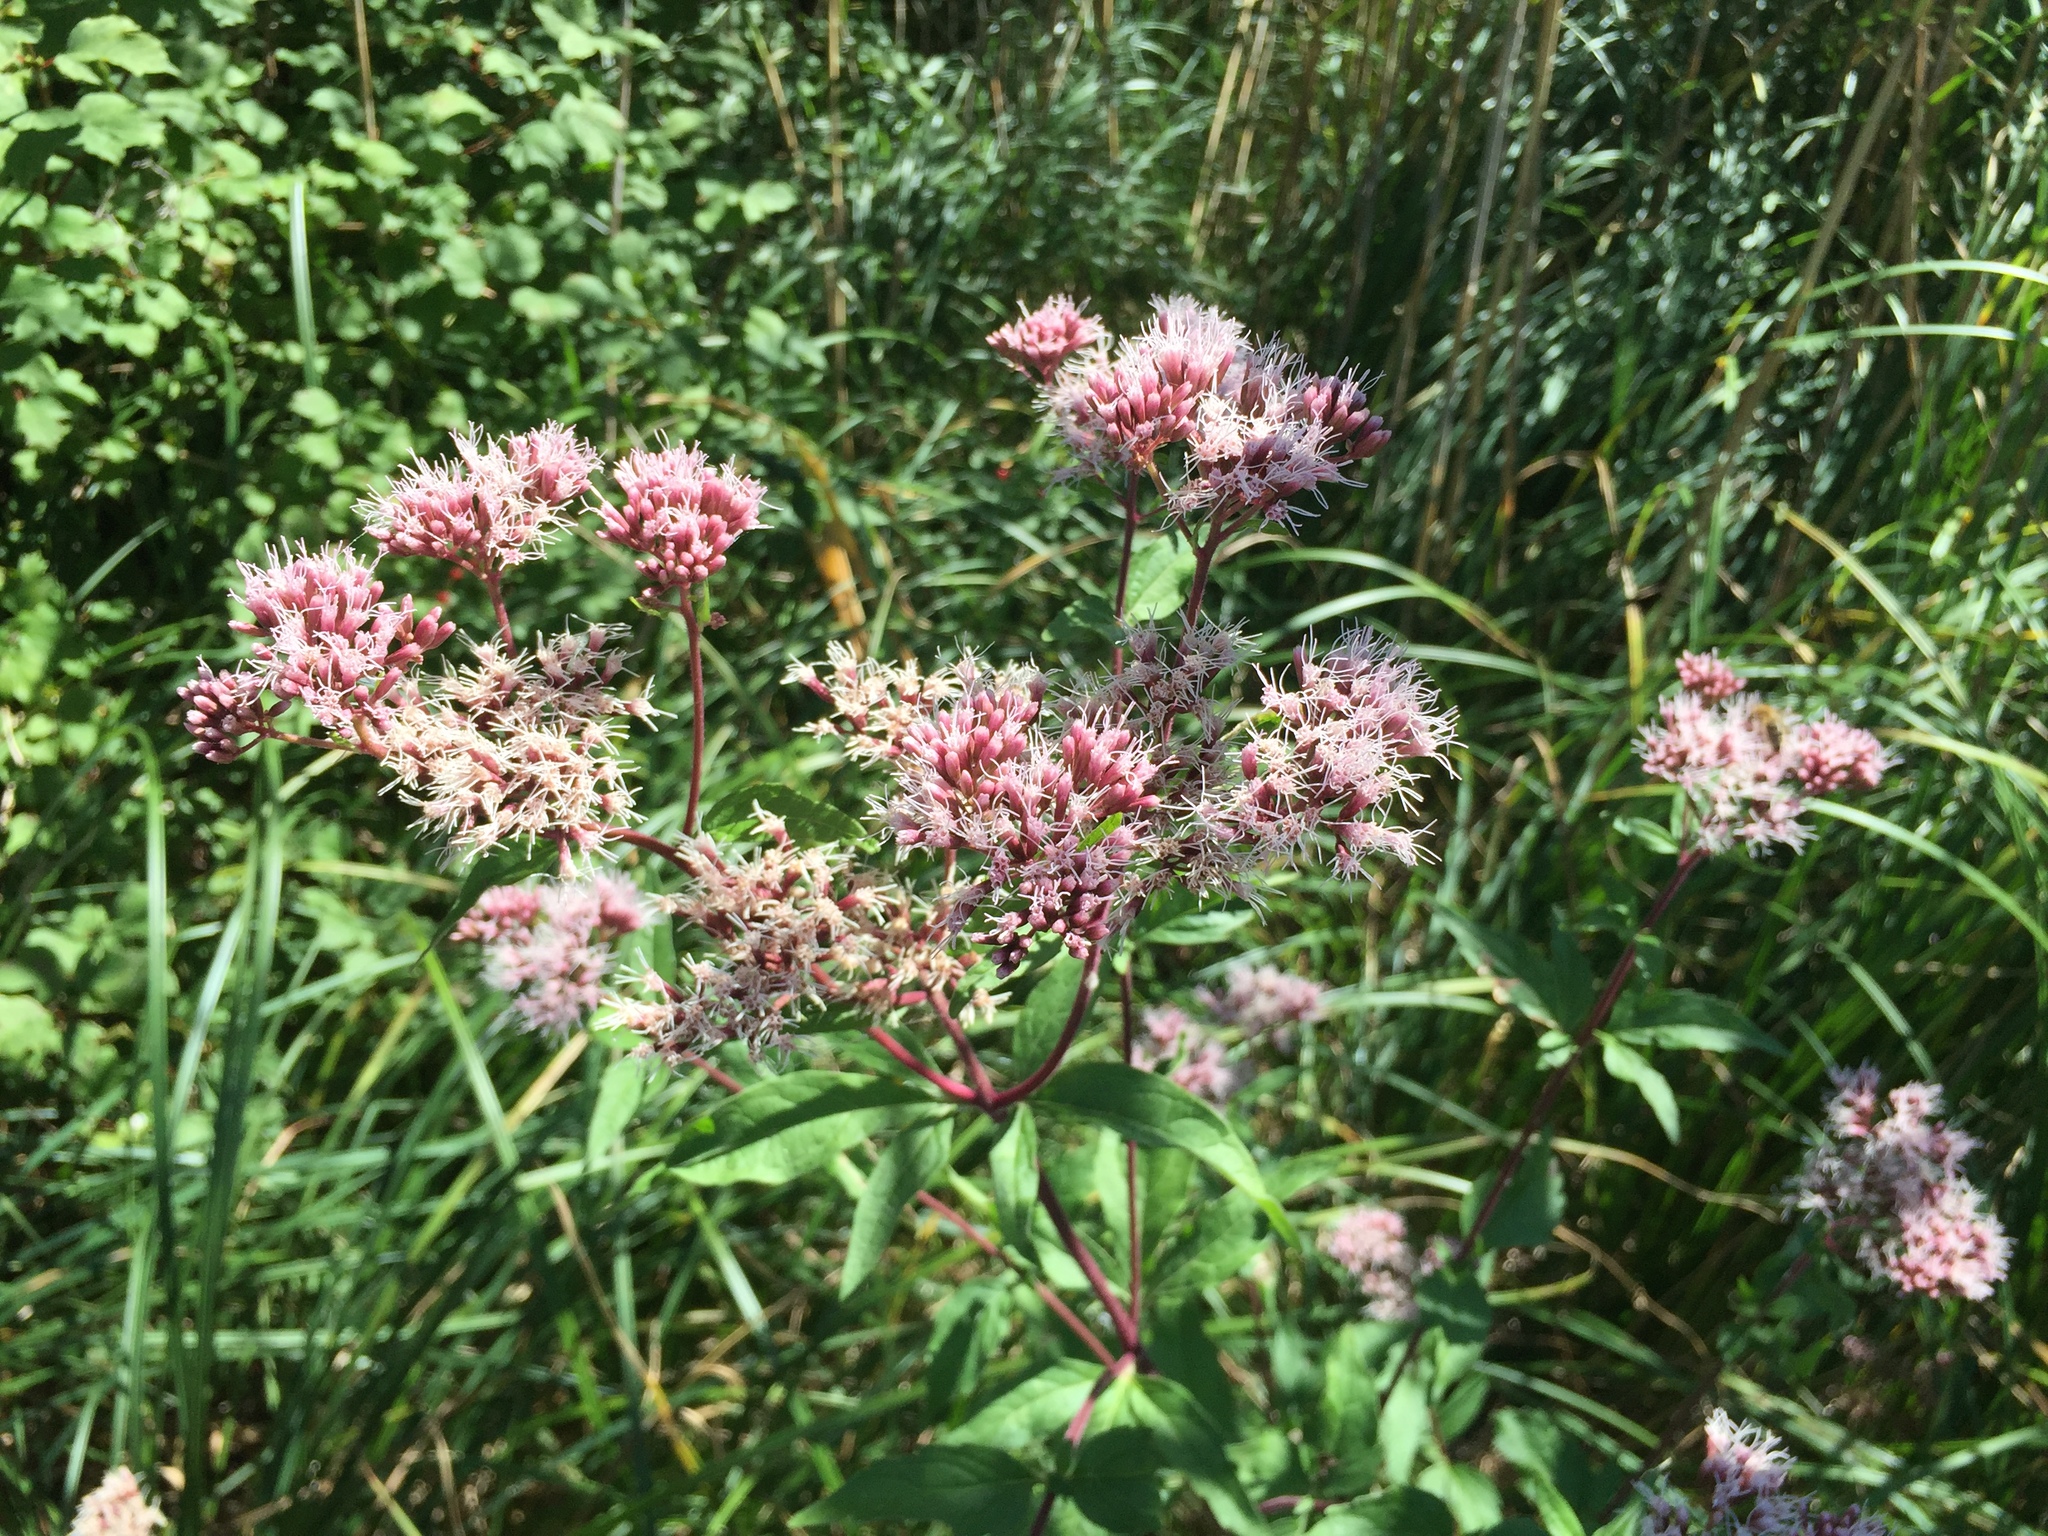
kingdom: Plantae
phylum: Tracheophyta
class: Magnoliopsida
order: Asterales
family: Asteraceae
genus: Eupatorium
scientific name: Eupatorium cannabinum
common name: Hemp-agrimony
